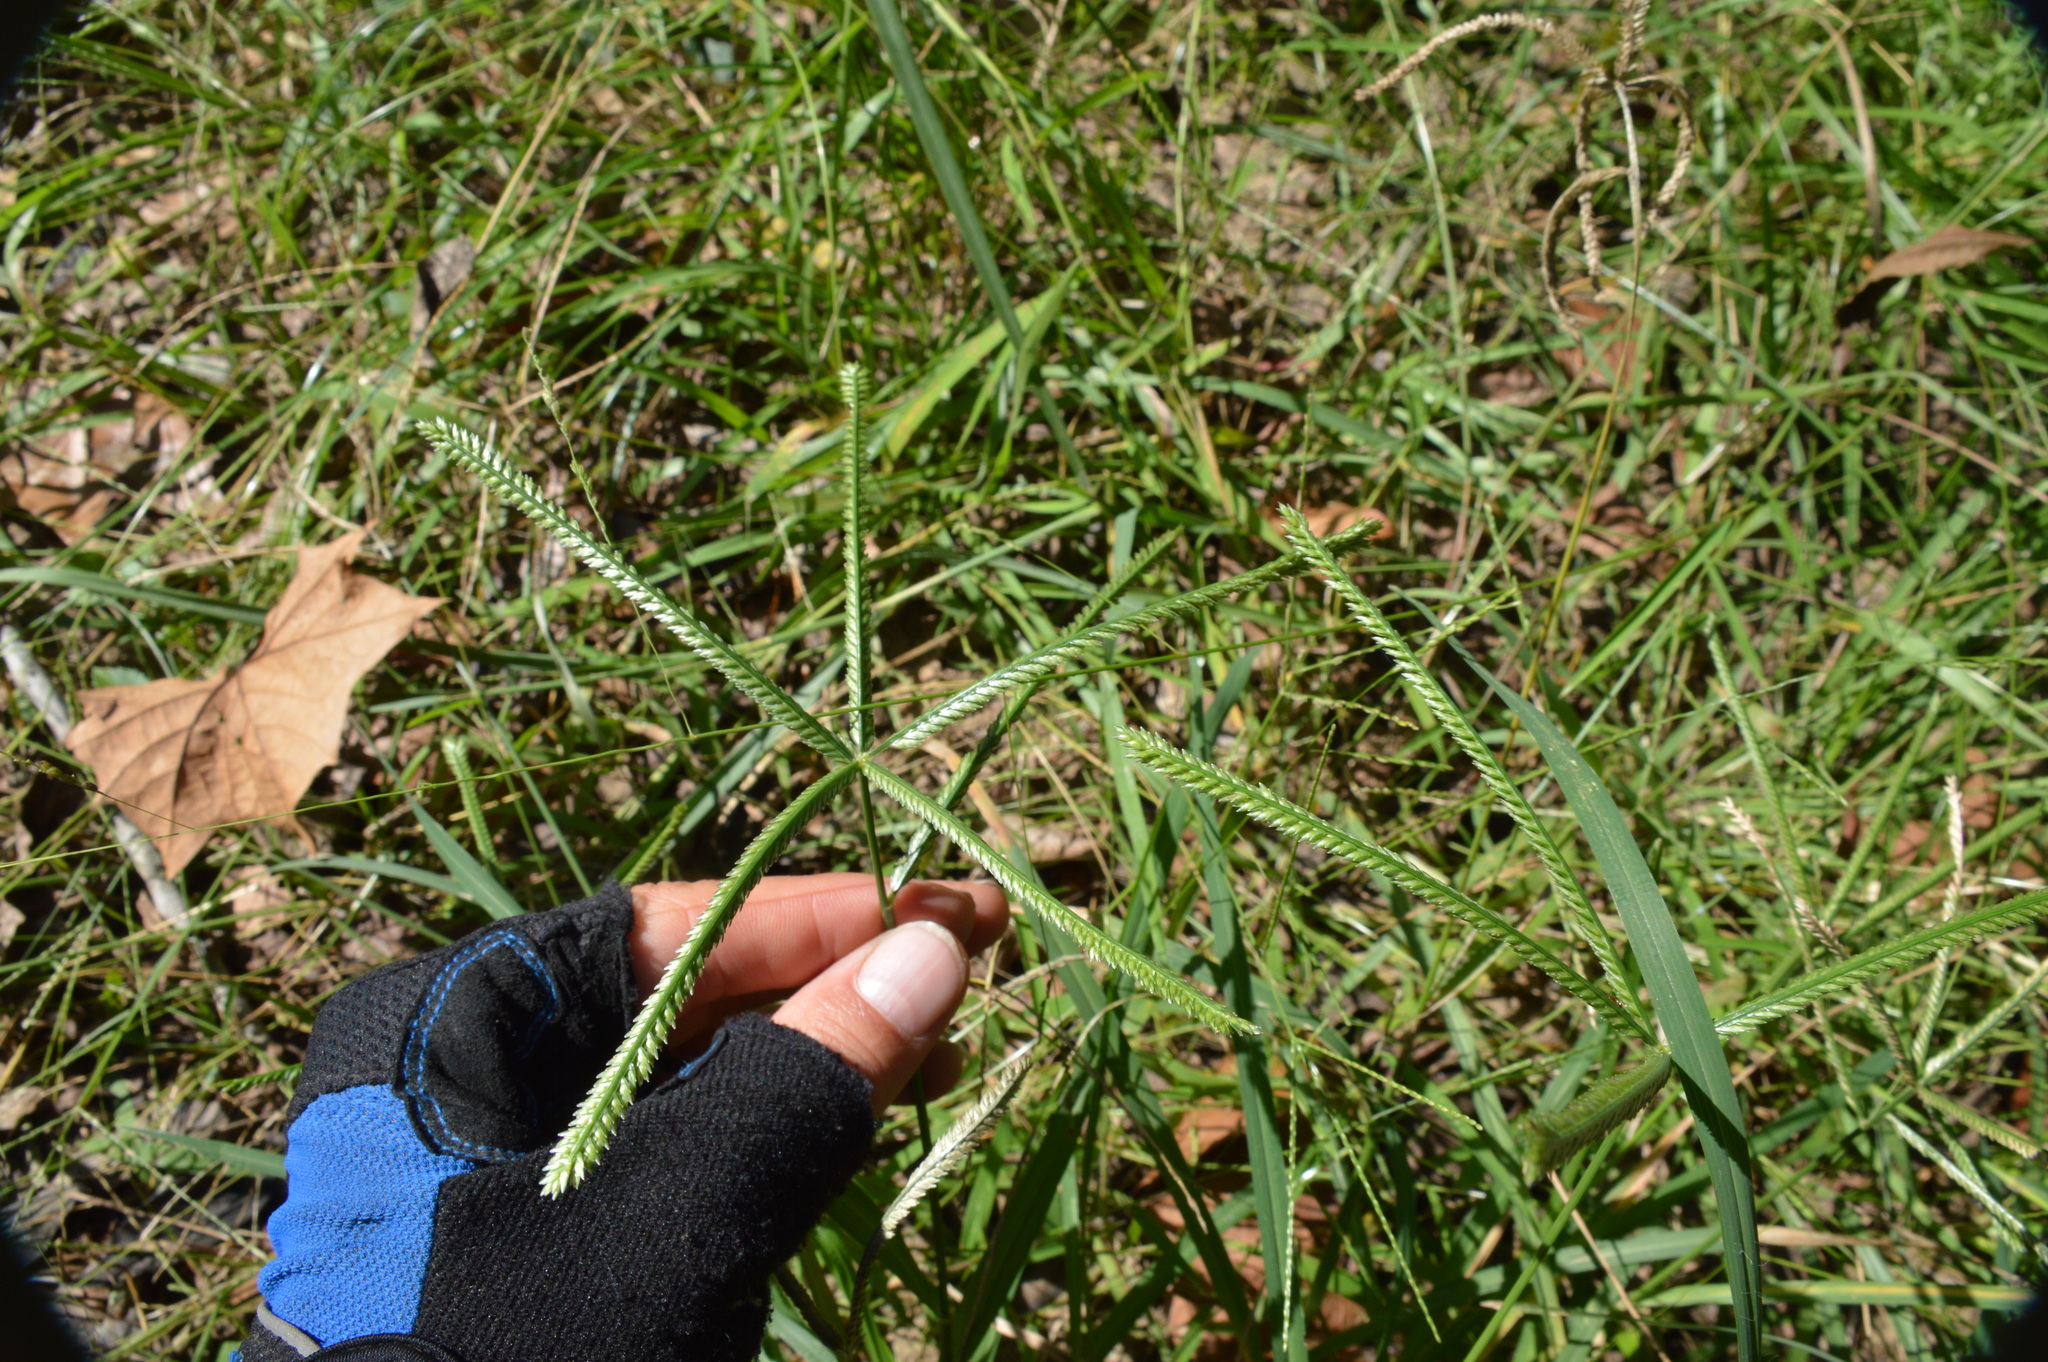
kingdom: Plantae
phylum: Tracheophyta
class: Liliopsida
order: Poales
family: Poaceae
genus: Eleusine
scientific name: Eleusine indica
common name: Yard-grass
